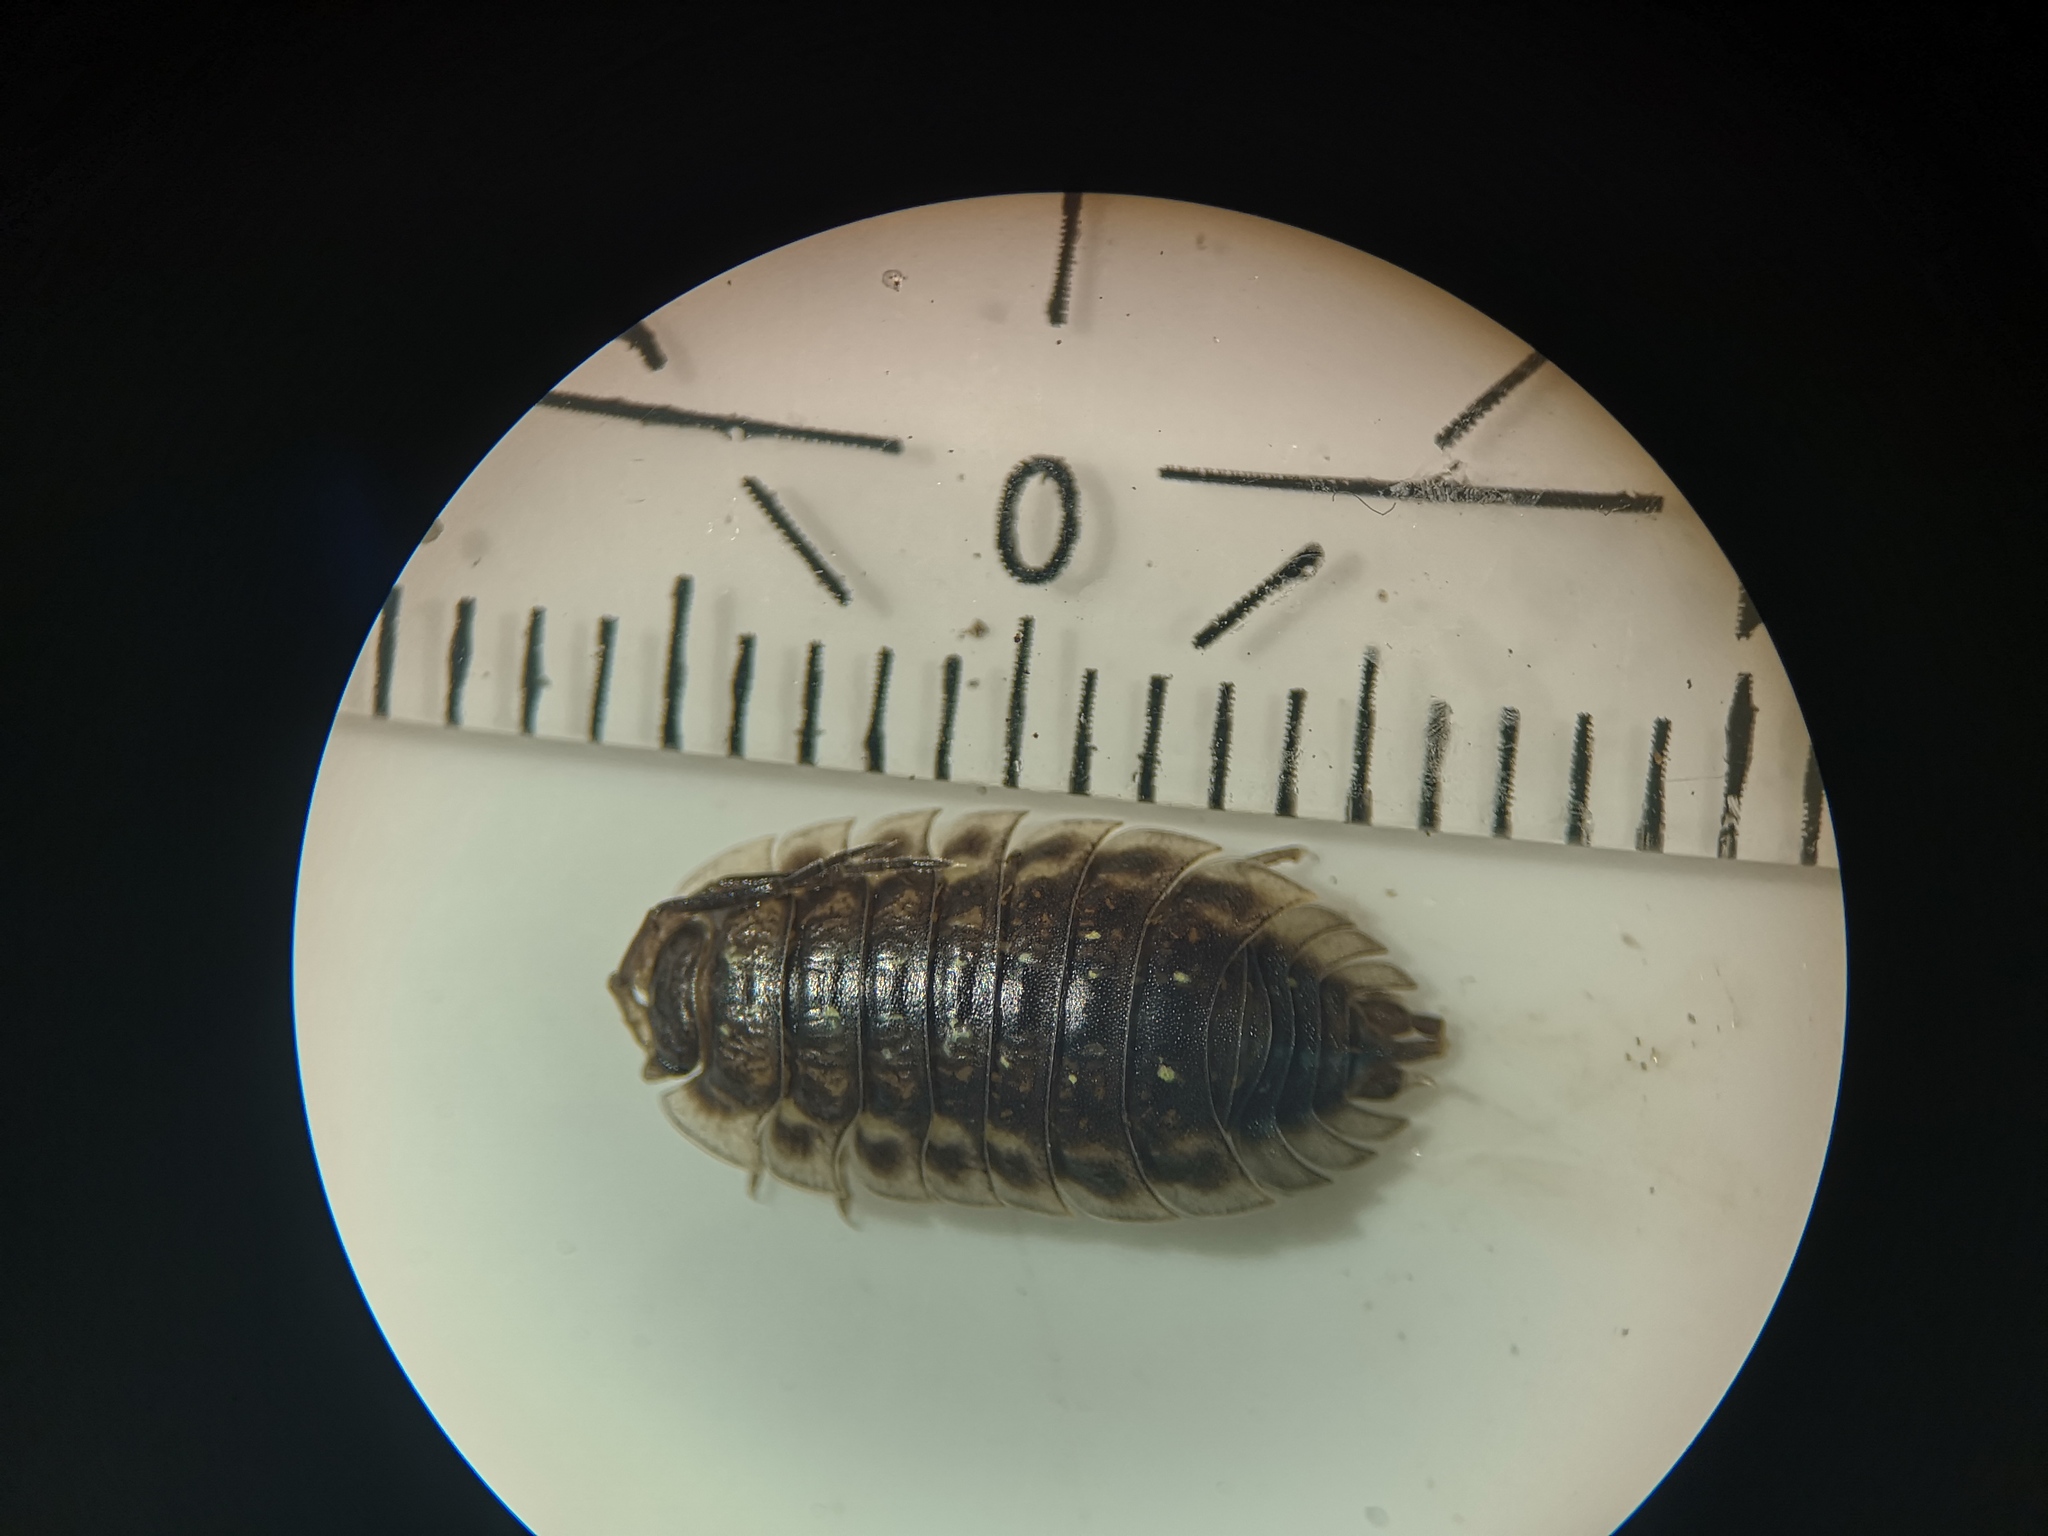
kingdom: Animalia
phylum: Arthropoda
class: Malacostraca
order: Isopoda
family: Oniscidae
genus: Oniscus
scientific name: Oniscus asellus
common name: Common shiny woodlouse
